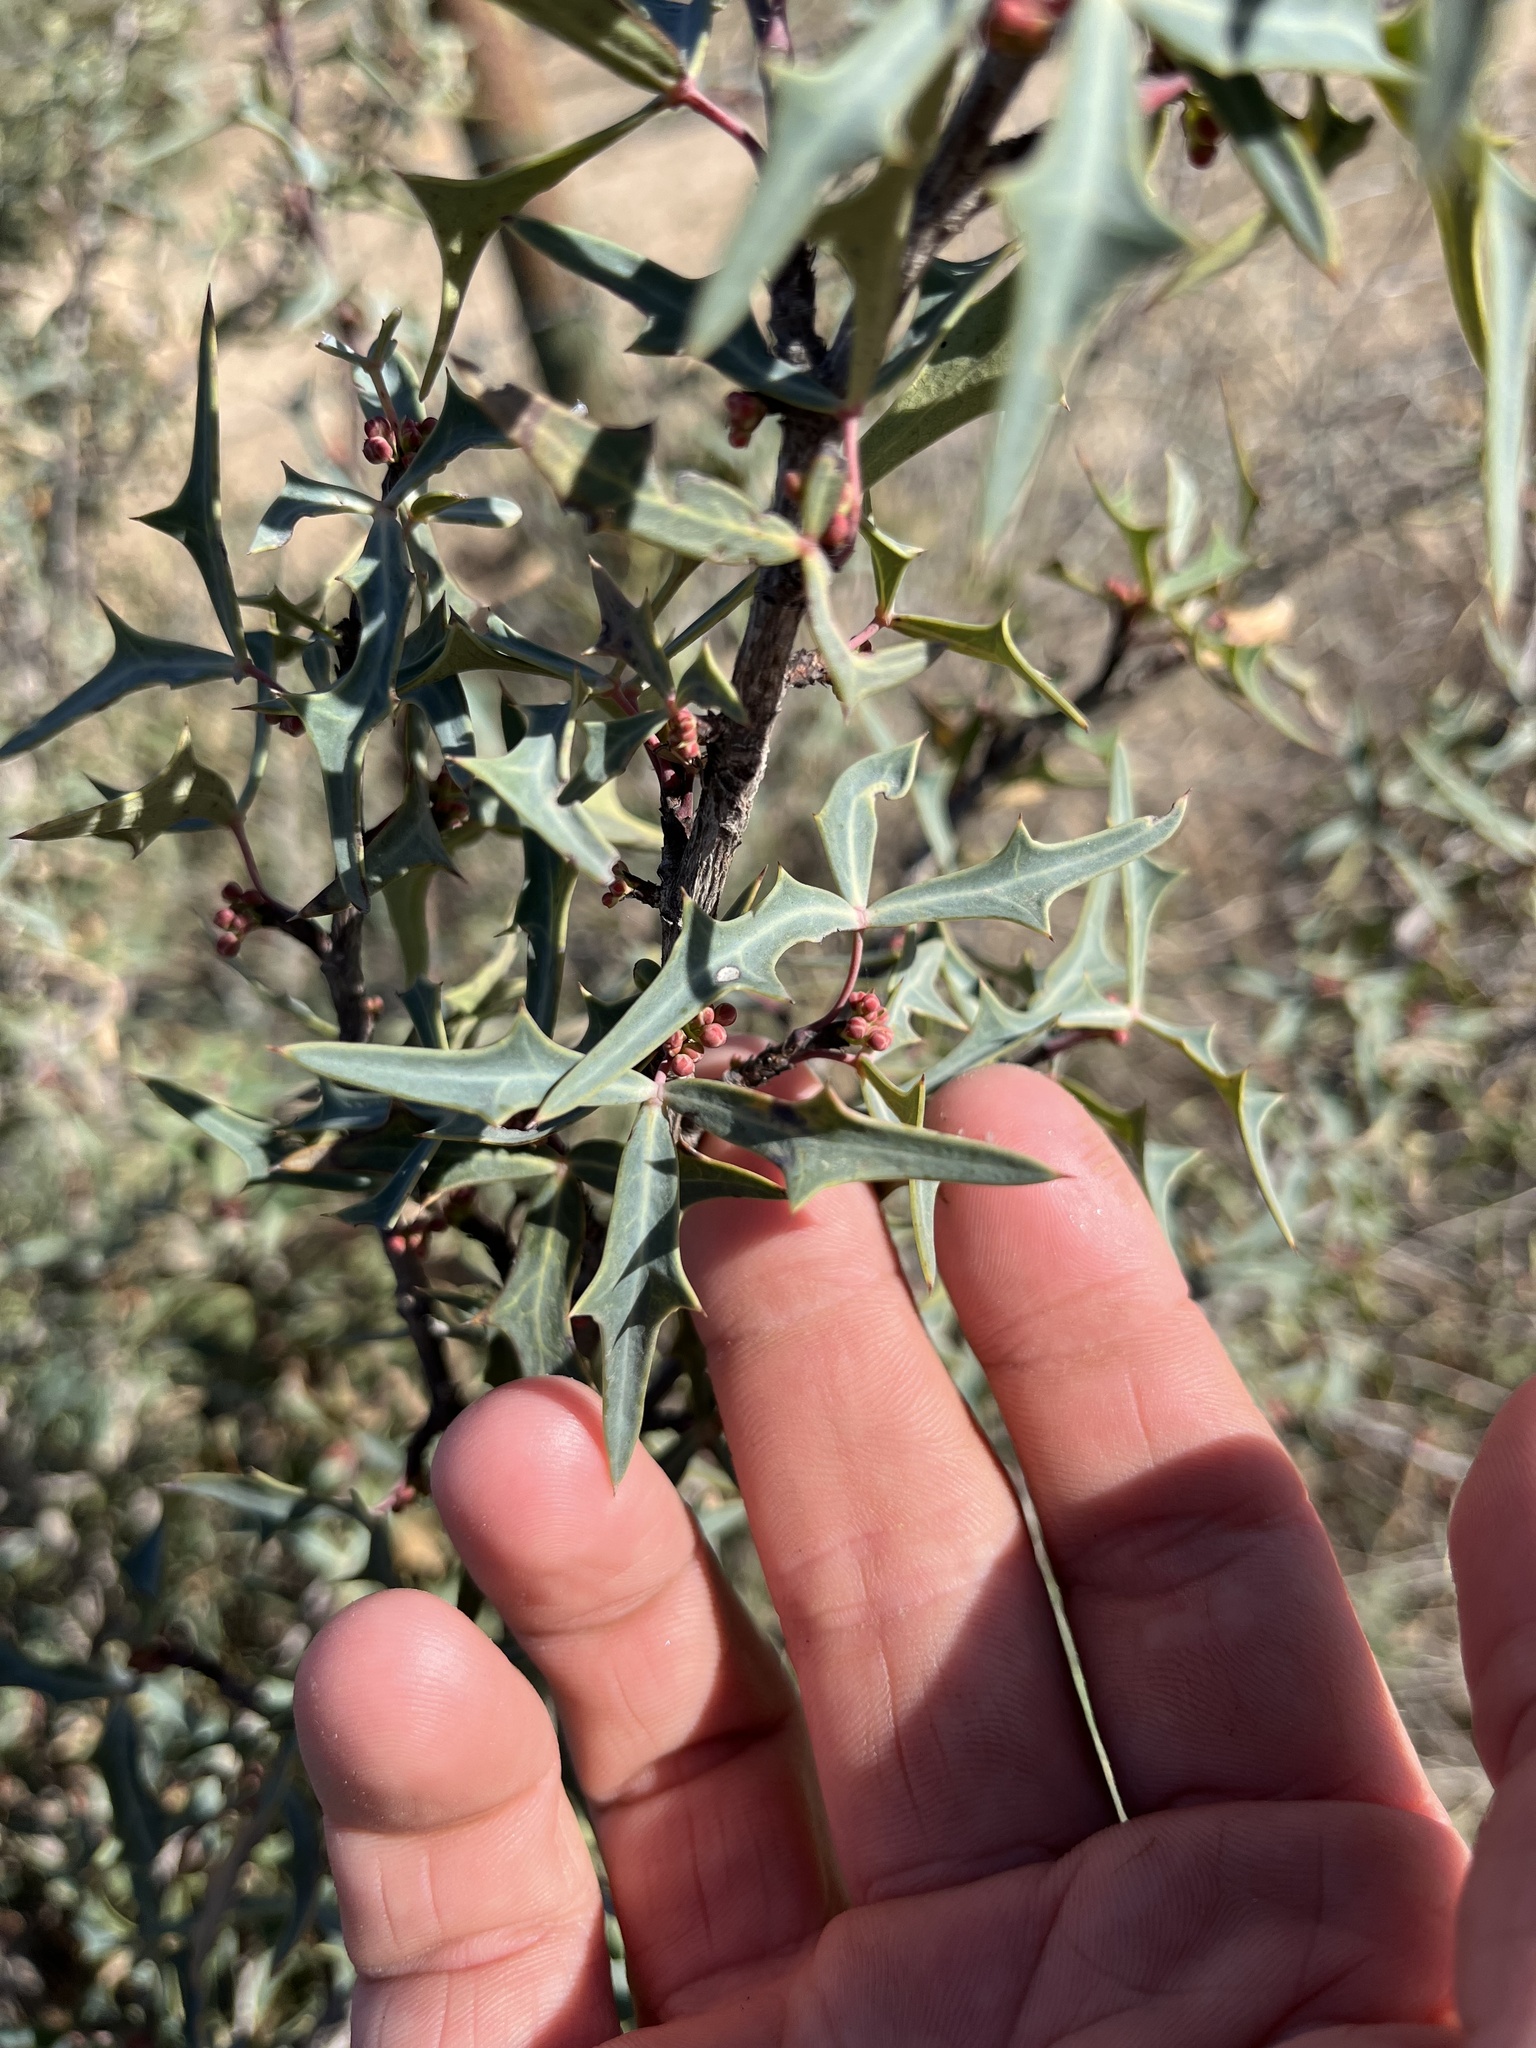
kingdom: Plantae
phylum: Tracheophyta
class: Magnoliopsida
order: Ranunculales
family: Berberidaceae
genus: Alloberberis
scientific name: Alloberberis trifoliolata
